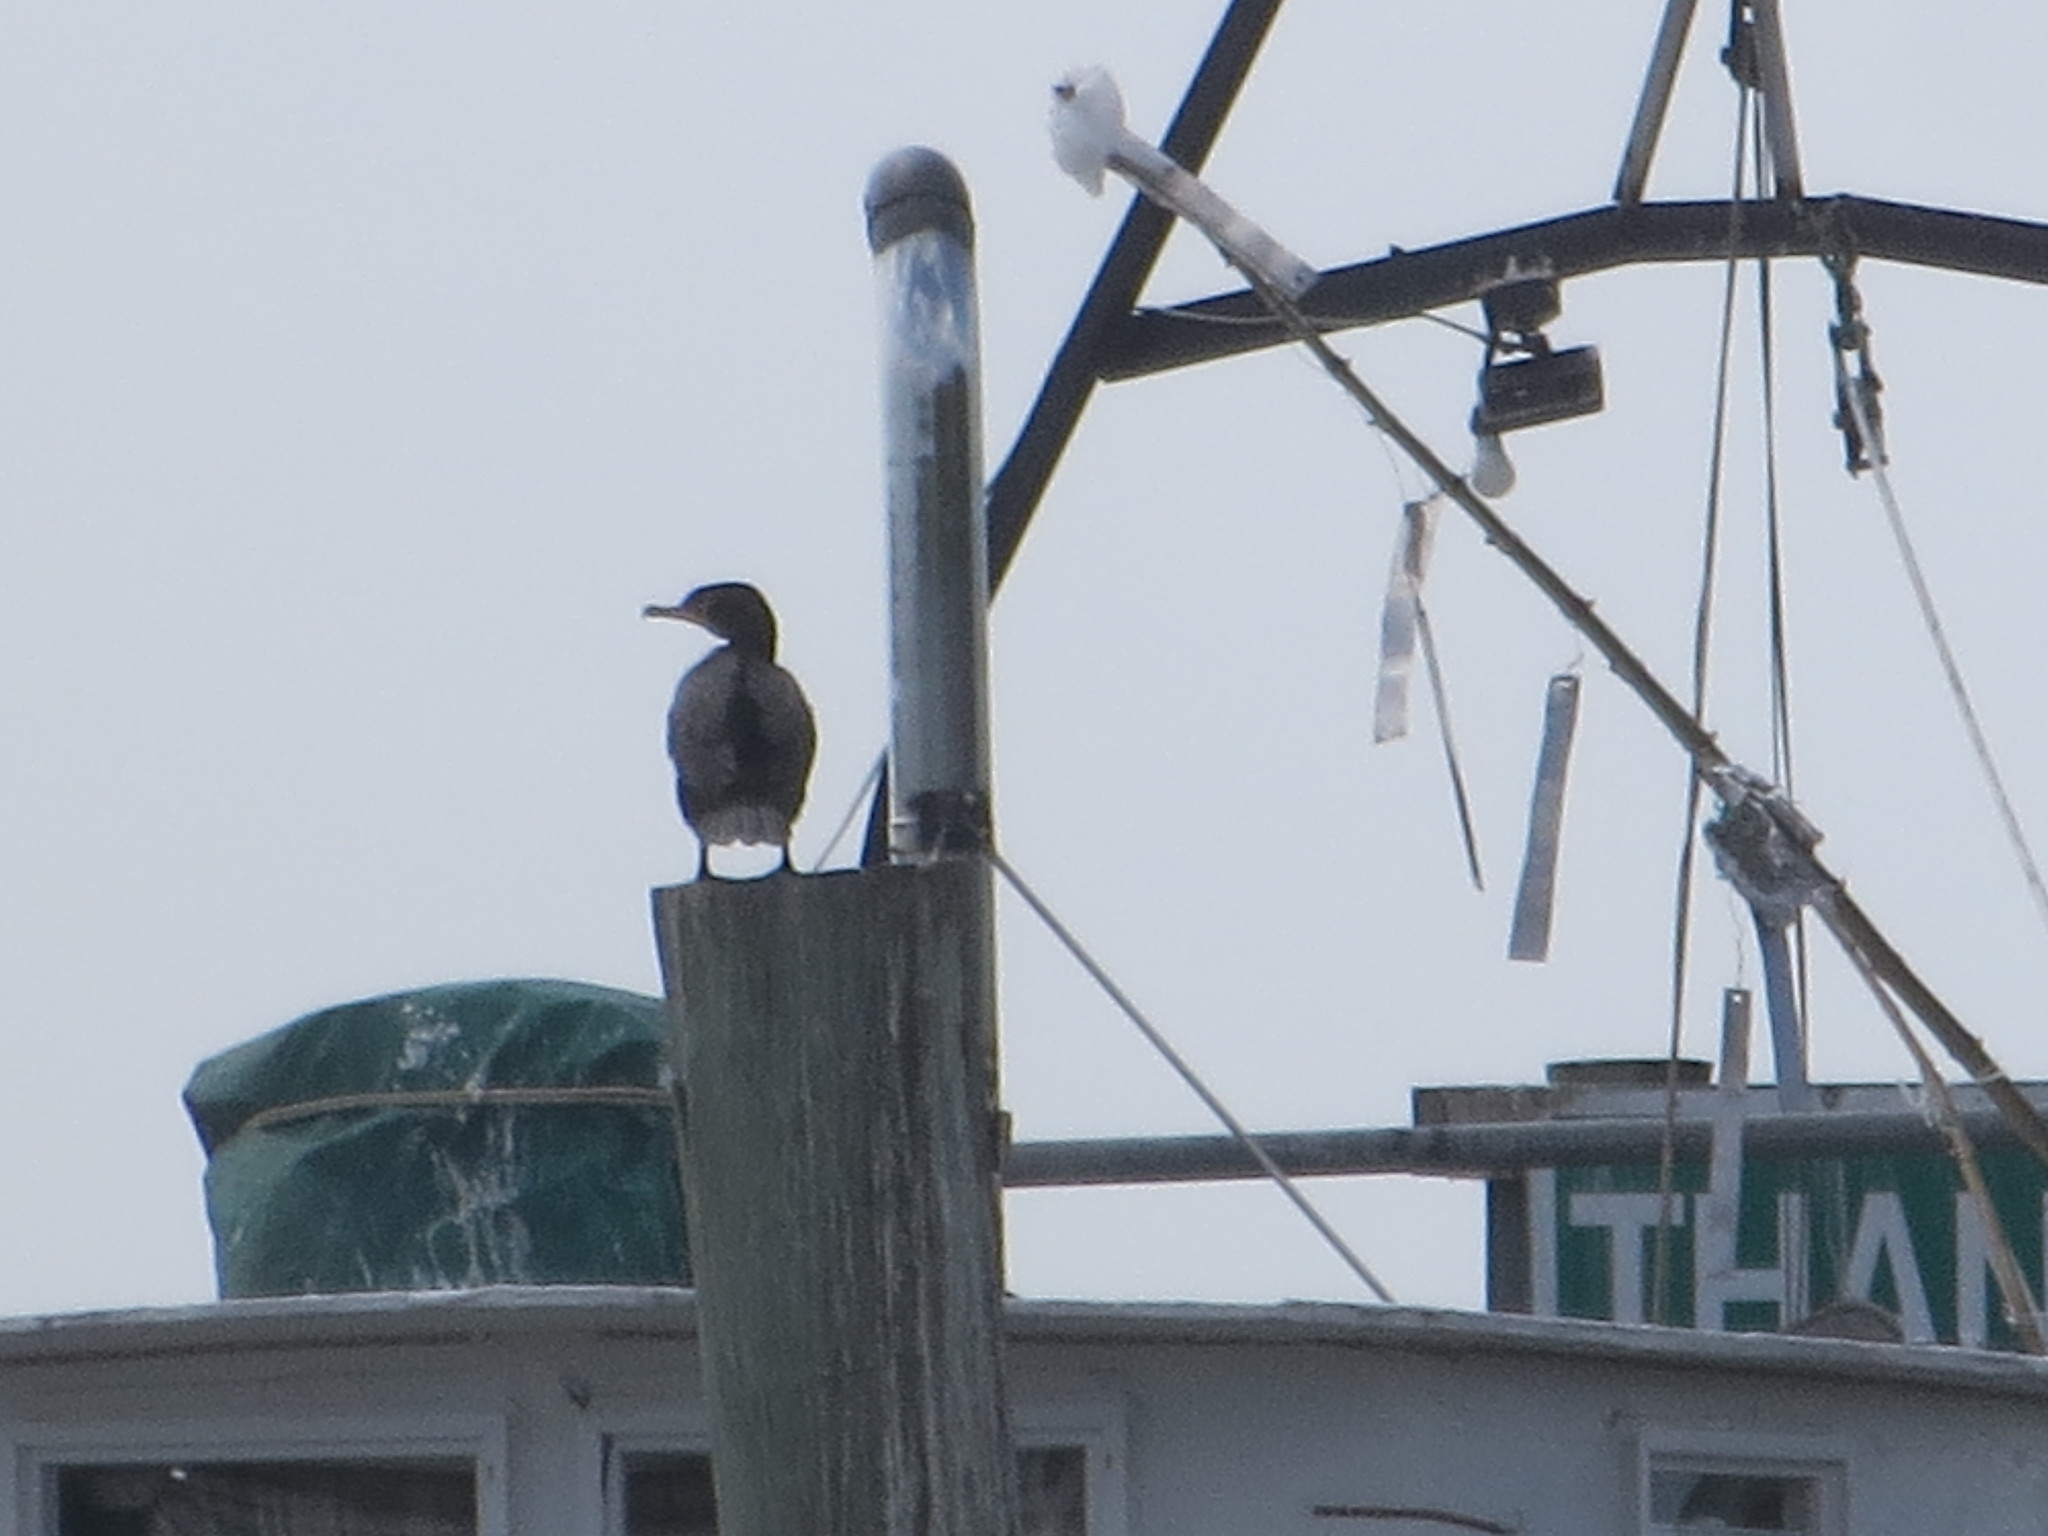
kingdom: Animalia
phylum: Chordata
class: Aves
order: Suliformes
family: Phalacrocoracidae
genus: Phalacrocorax
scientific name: Phalacrocorax auritus
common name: Double-crested cormorant
